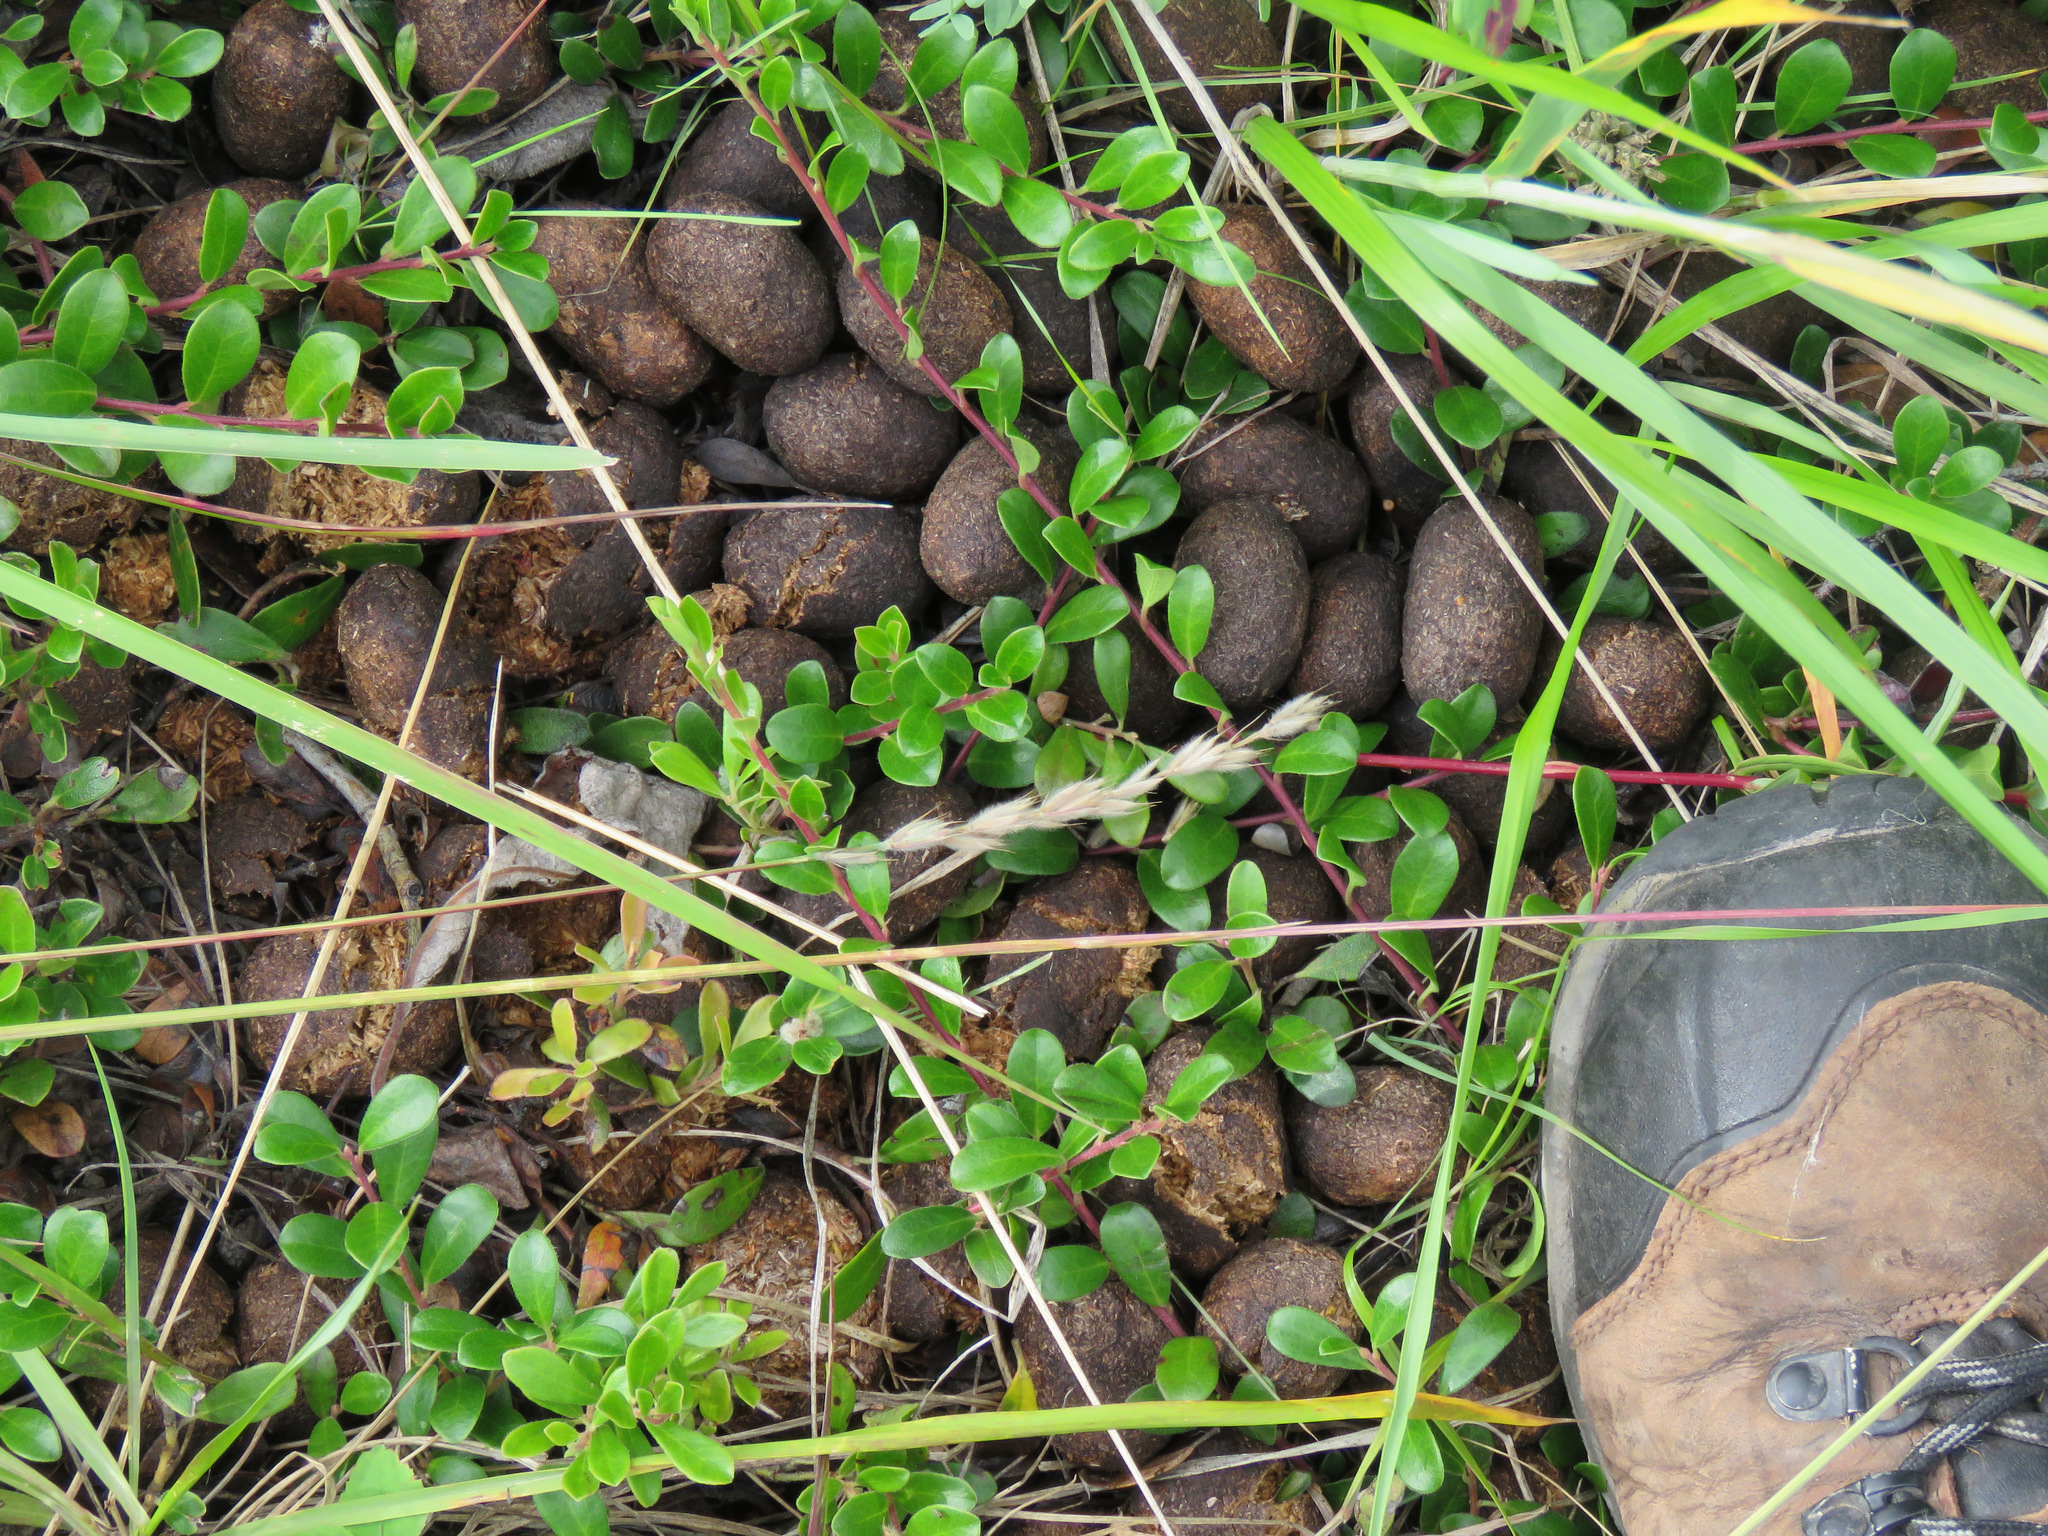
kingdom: Animalia
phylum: Chordata
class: Mammalia
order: Artiodactyla
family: Cervidae
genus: Alces
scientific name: Alces alces
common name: Moose
